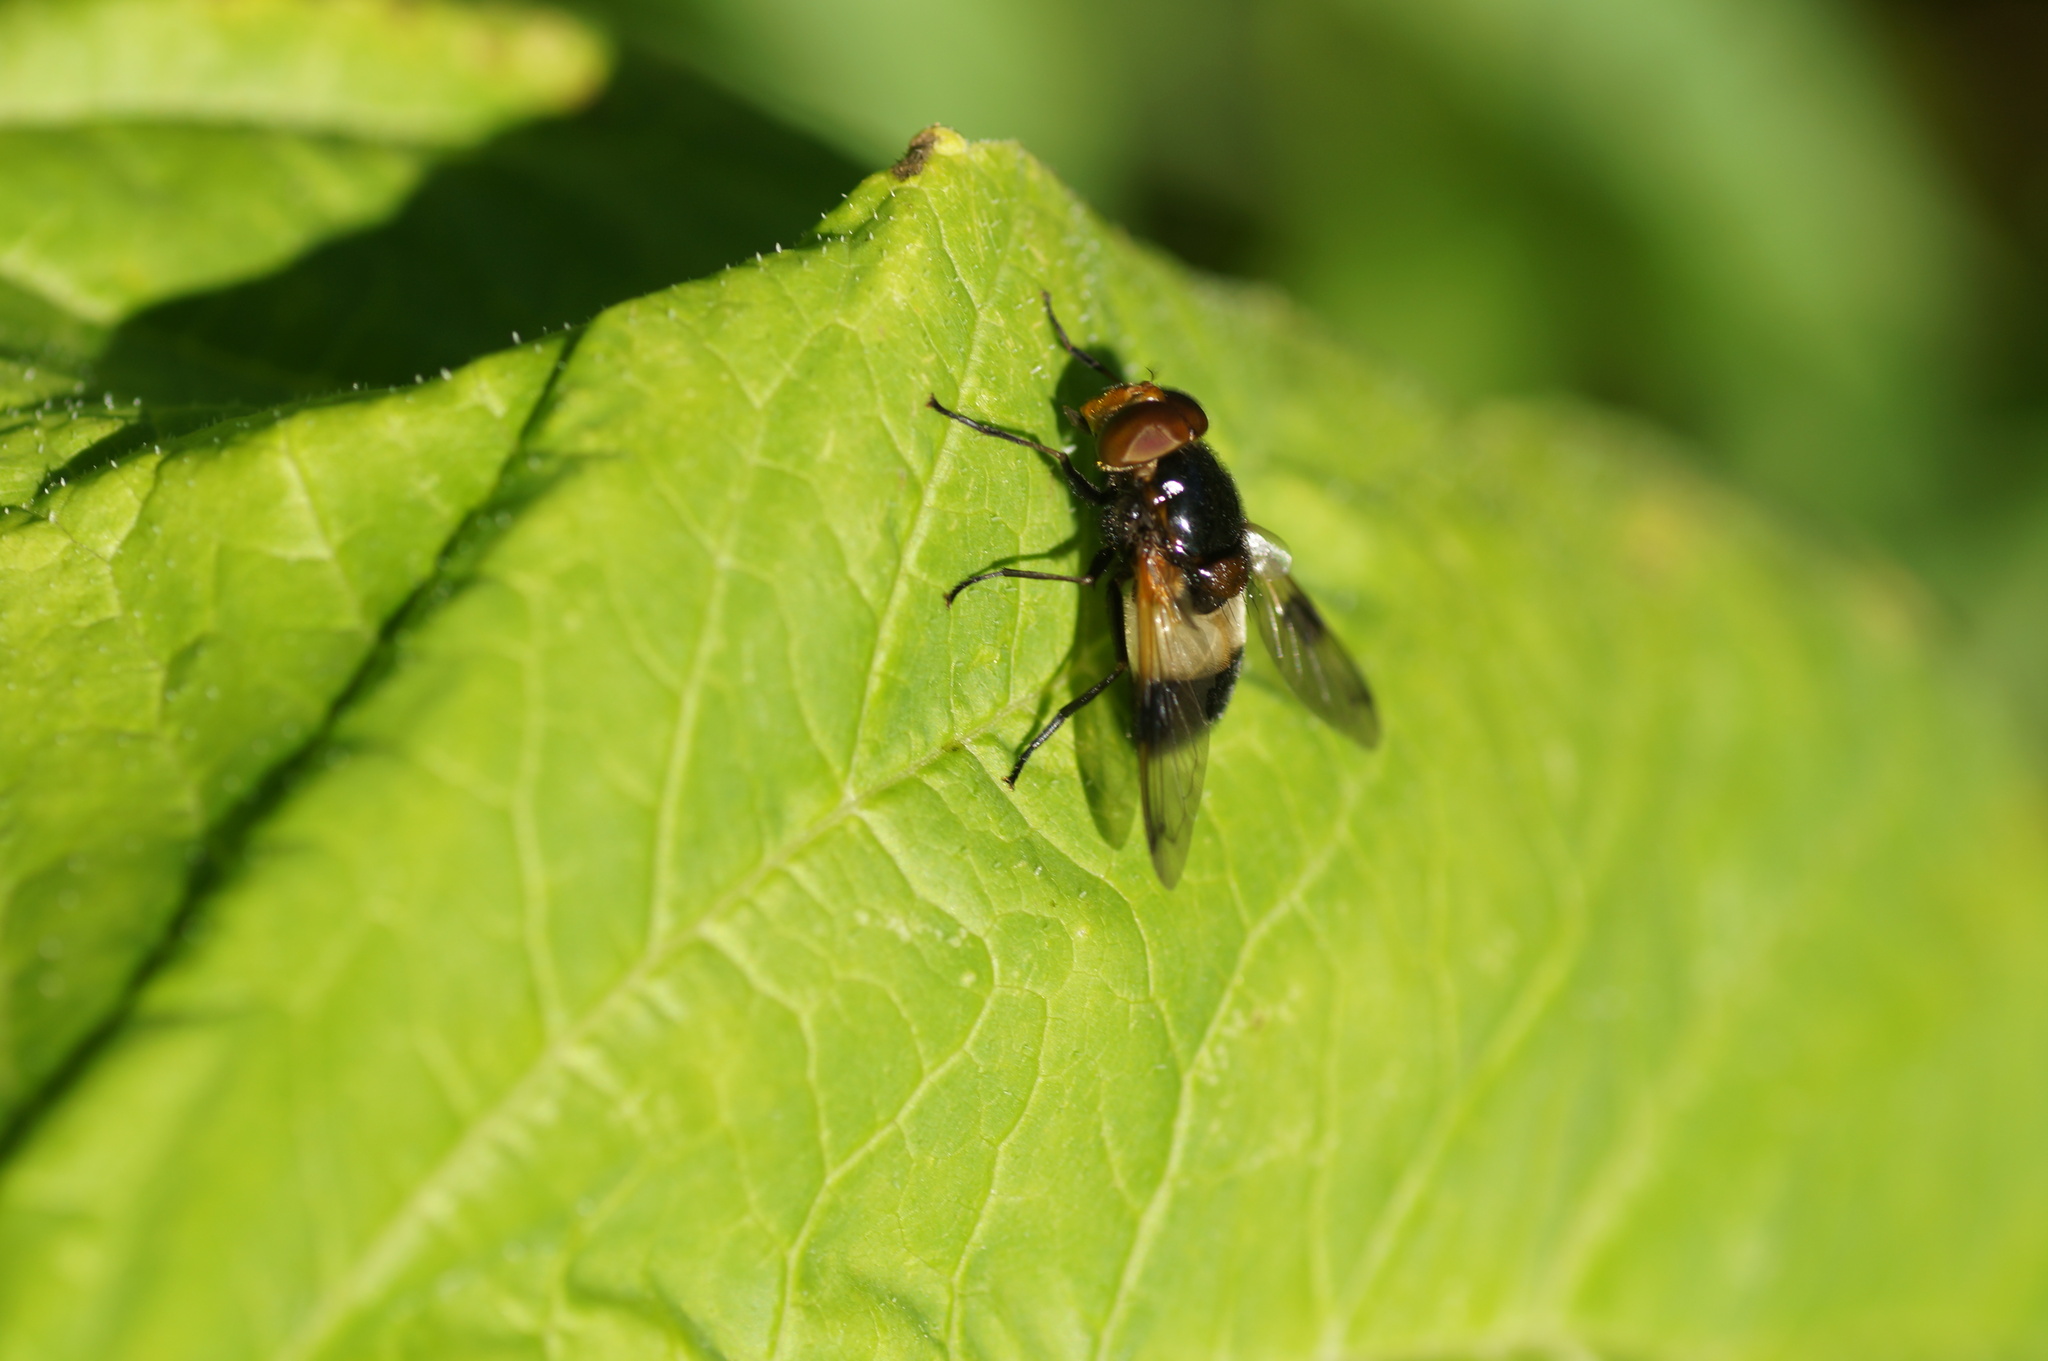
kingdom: Animalia
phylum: Arthropoda
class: Insecta
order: Diptera
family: Syrphidae
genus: Volucella
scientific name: Volucella pellucens
